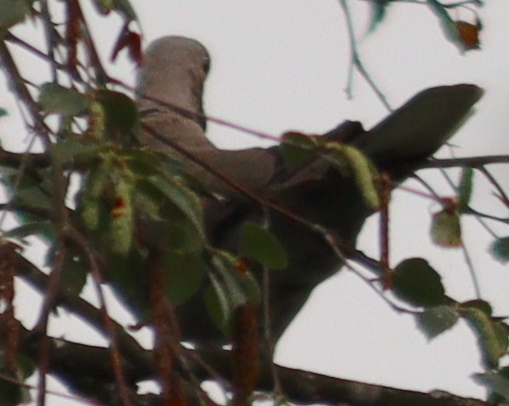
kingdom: Animalia
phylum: Chordata
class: Aves
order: Columbiformes
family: Columbidae
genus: Streptopelia
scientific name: Streptopelia decaocto
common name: Eurasian collared dove
